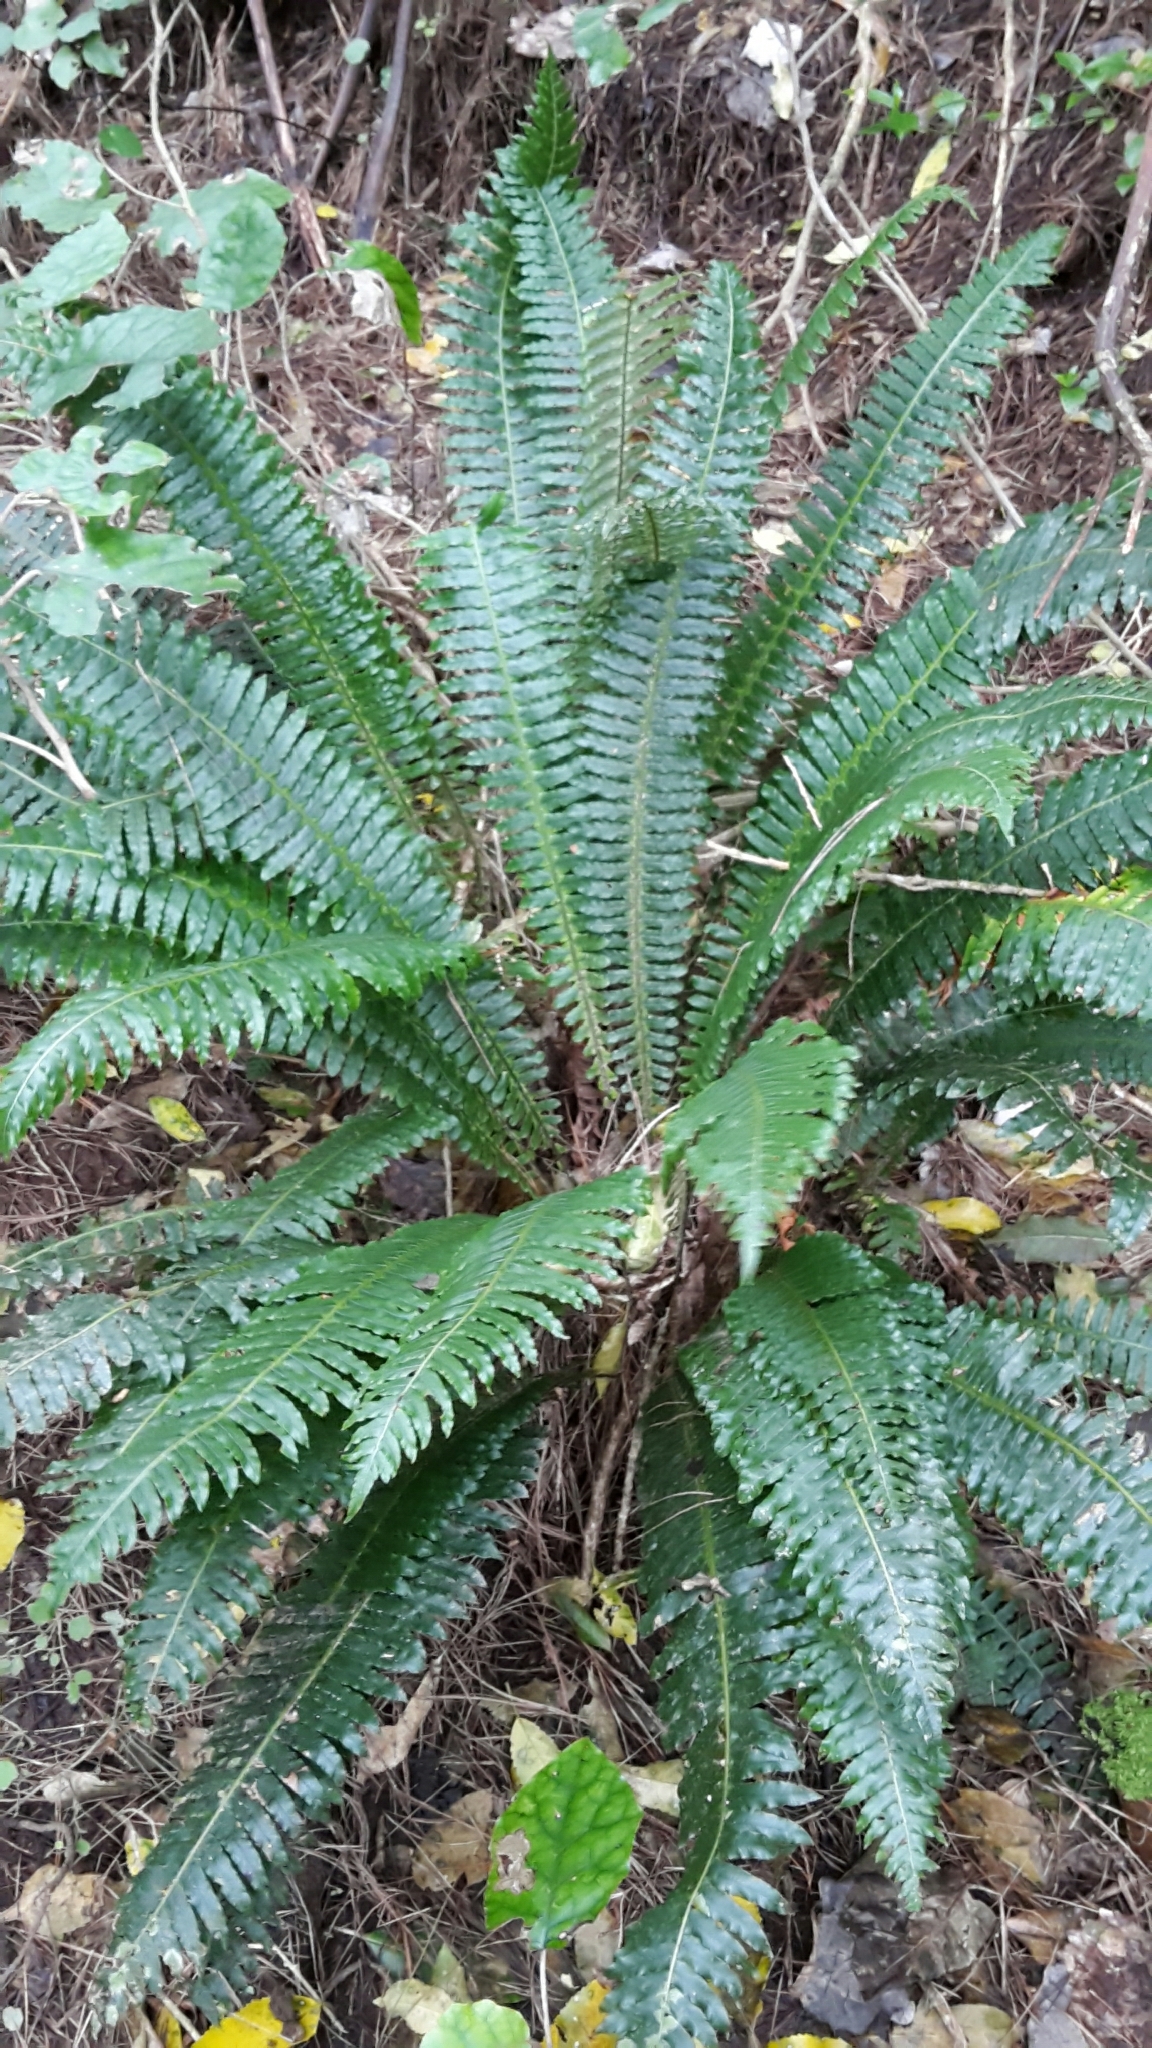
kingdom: Plantae
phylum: Tracheophyta
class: Polypodiopsida
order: Polypodiales
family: Blechnaceae
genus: Lomaria
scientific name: Lomaria discolor
